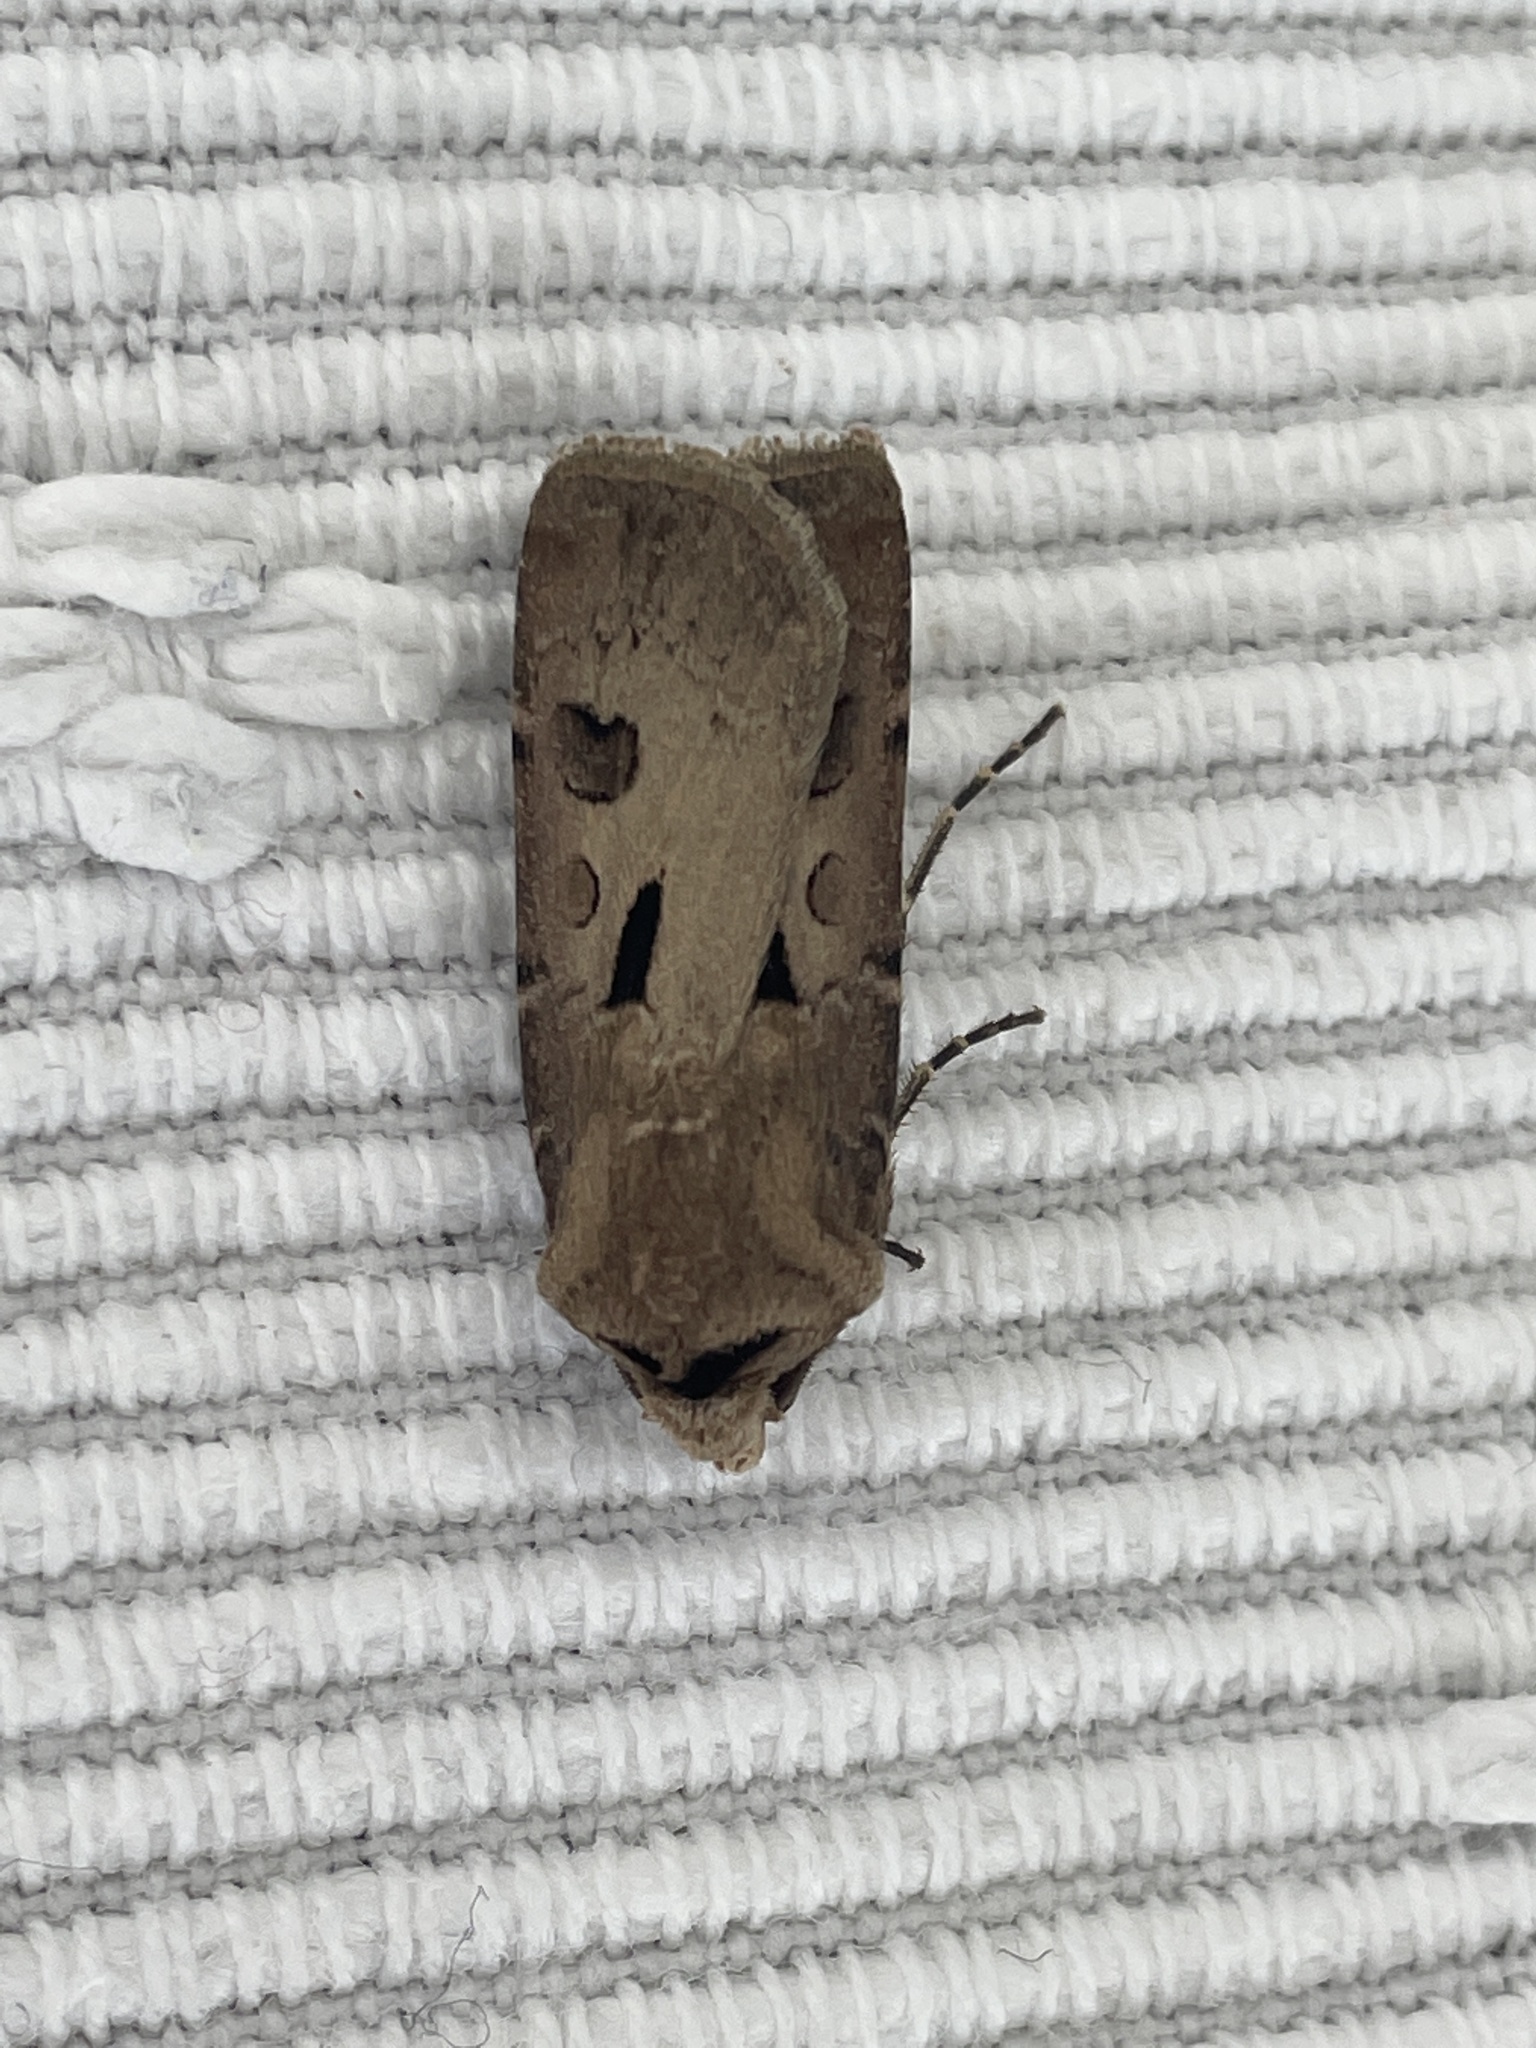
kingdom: Animalia
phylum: Arthropoda
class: Insecta
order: Lepidoptera
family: Noctuidae
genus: Agrotis
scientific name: Agrotis exclamationis
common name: Heart and dart
